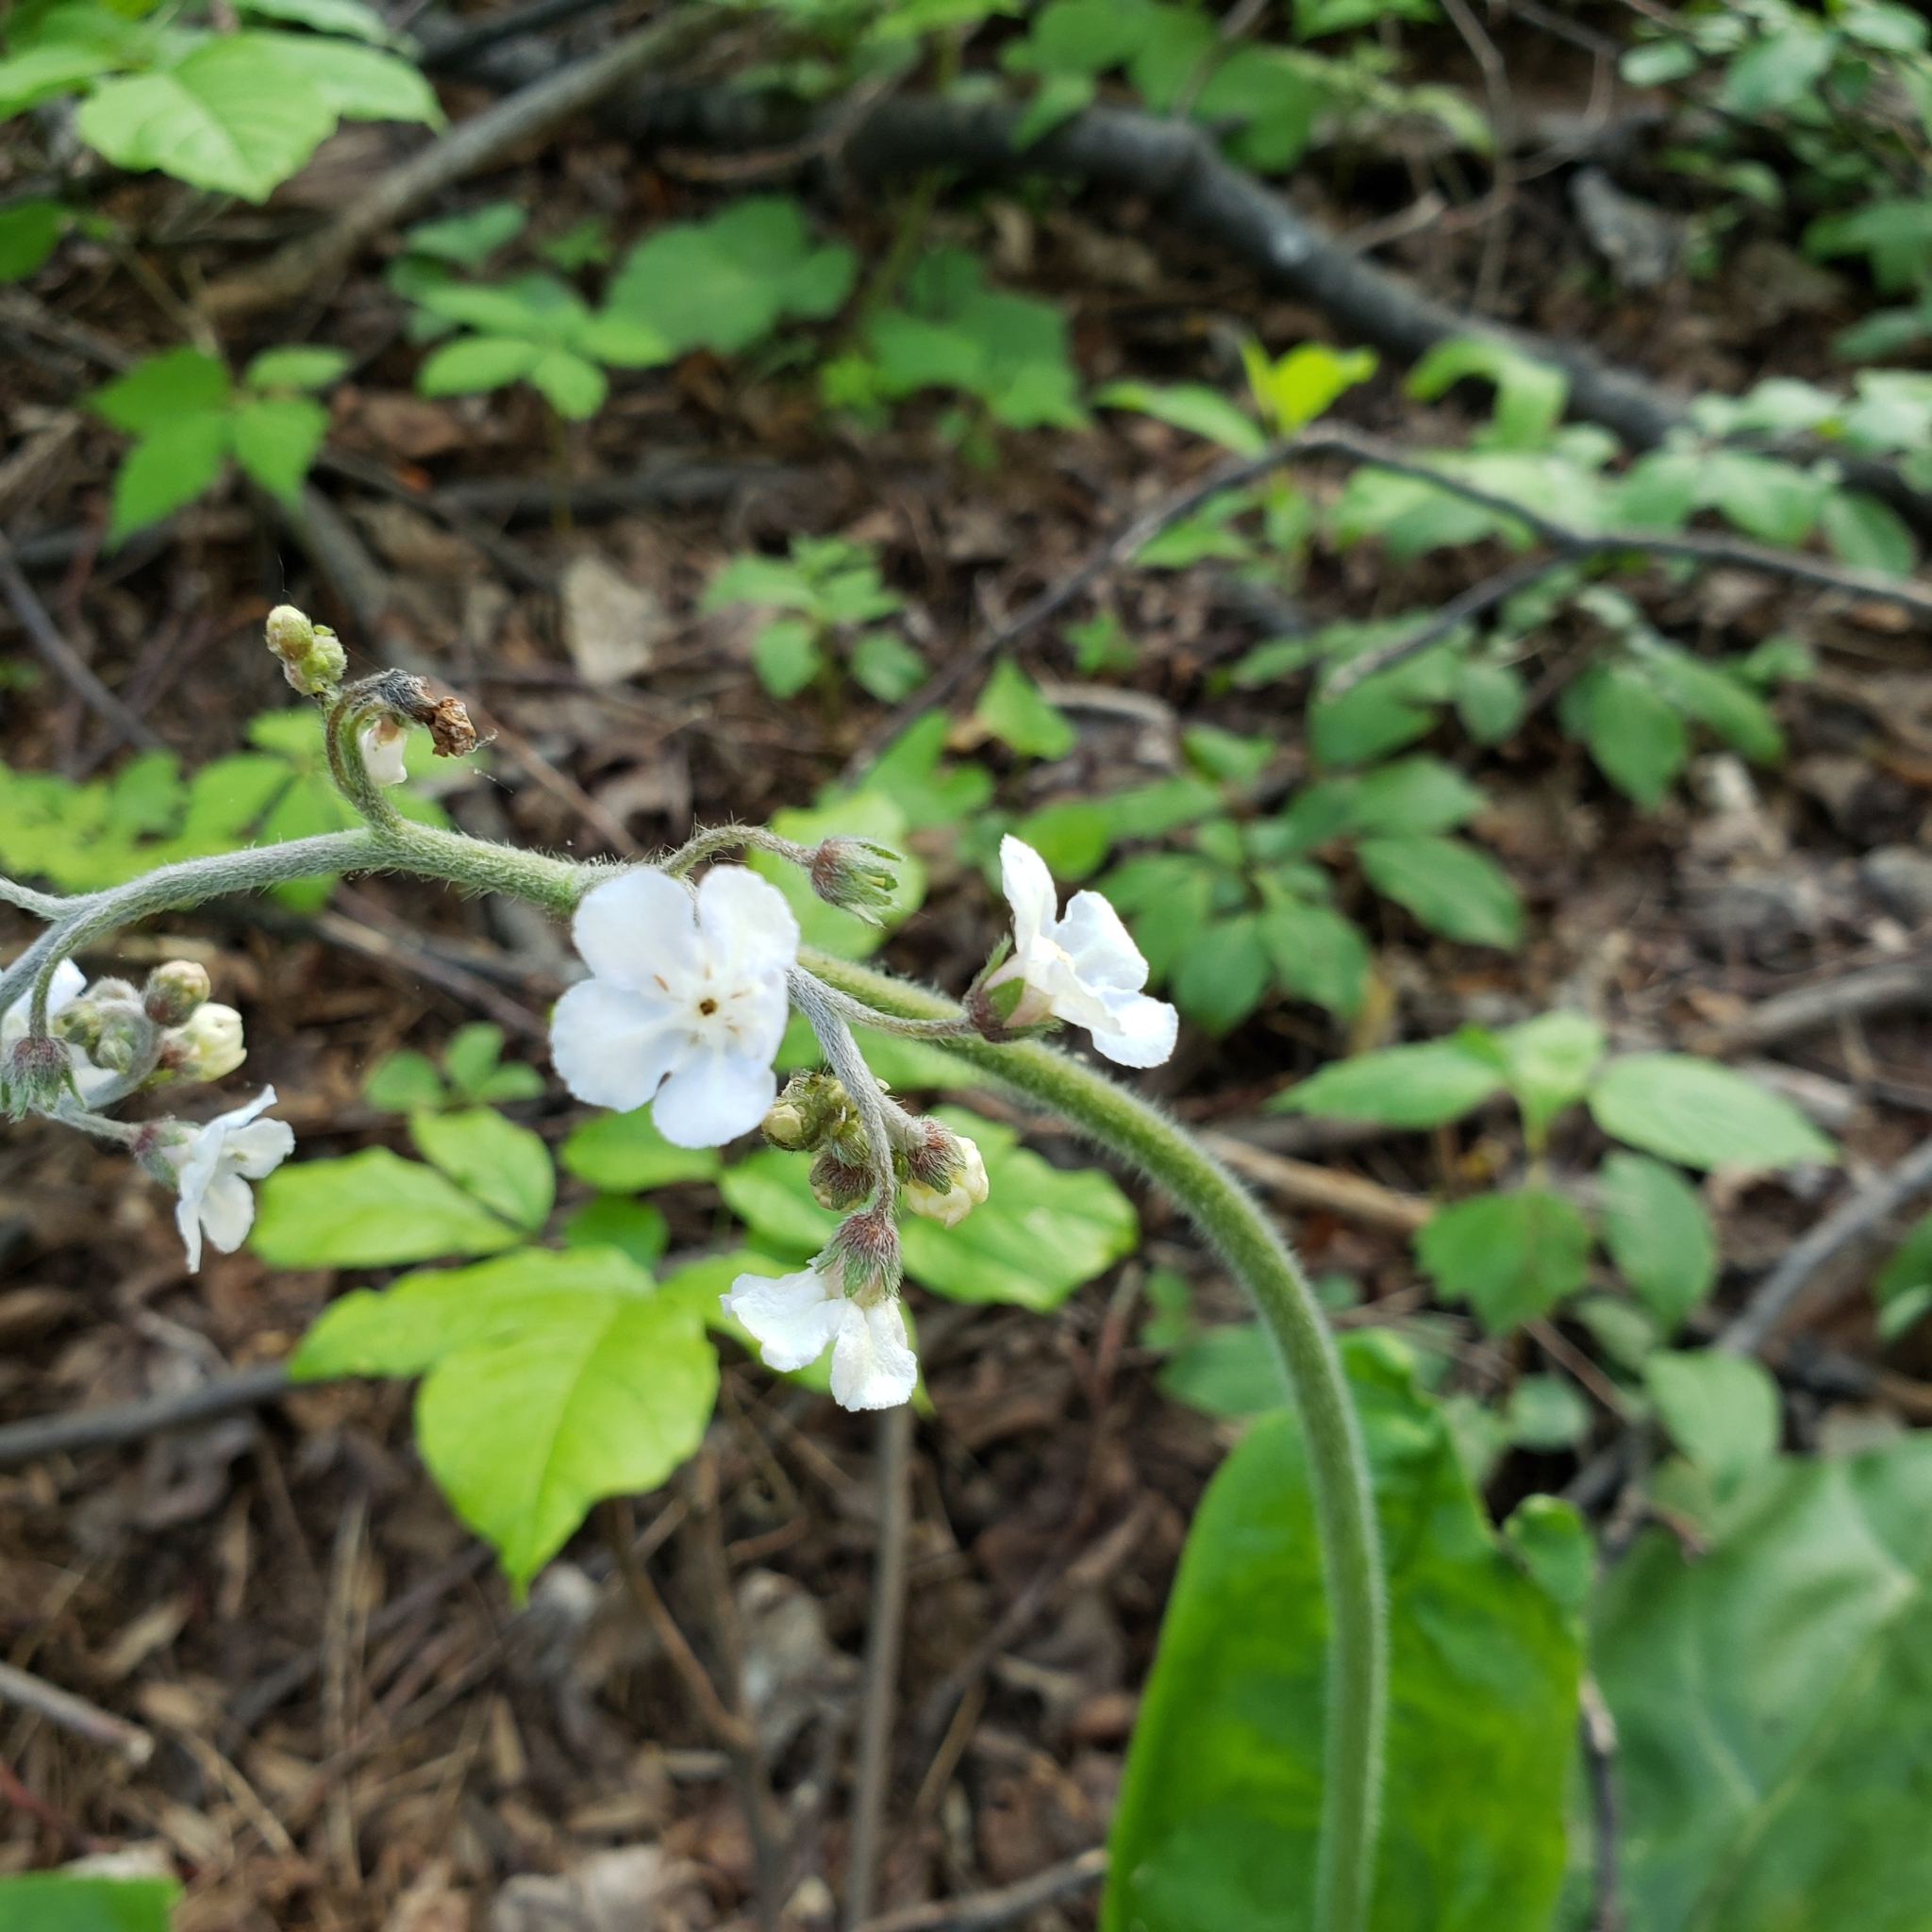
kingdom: Plantae
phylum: Tracheophyta
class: Magnoliopsida
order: Boraginales
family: Boraginaceae
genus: Andersonglossum
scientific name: Andersonglossum virginianum
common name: Wild comfrey
